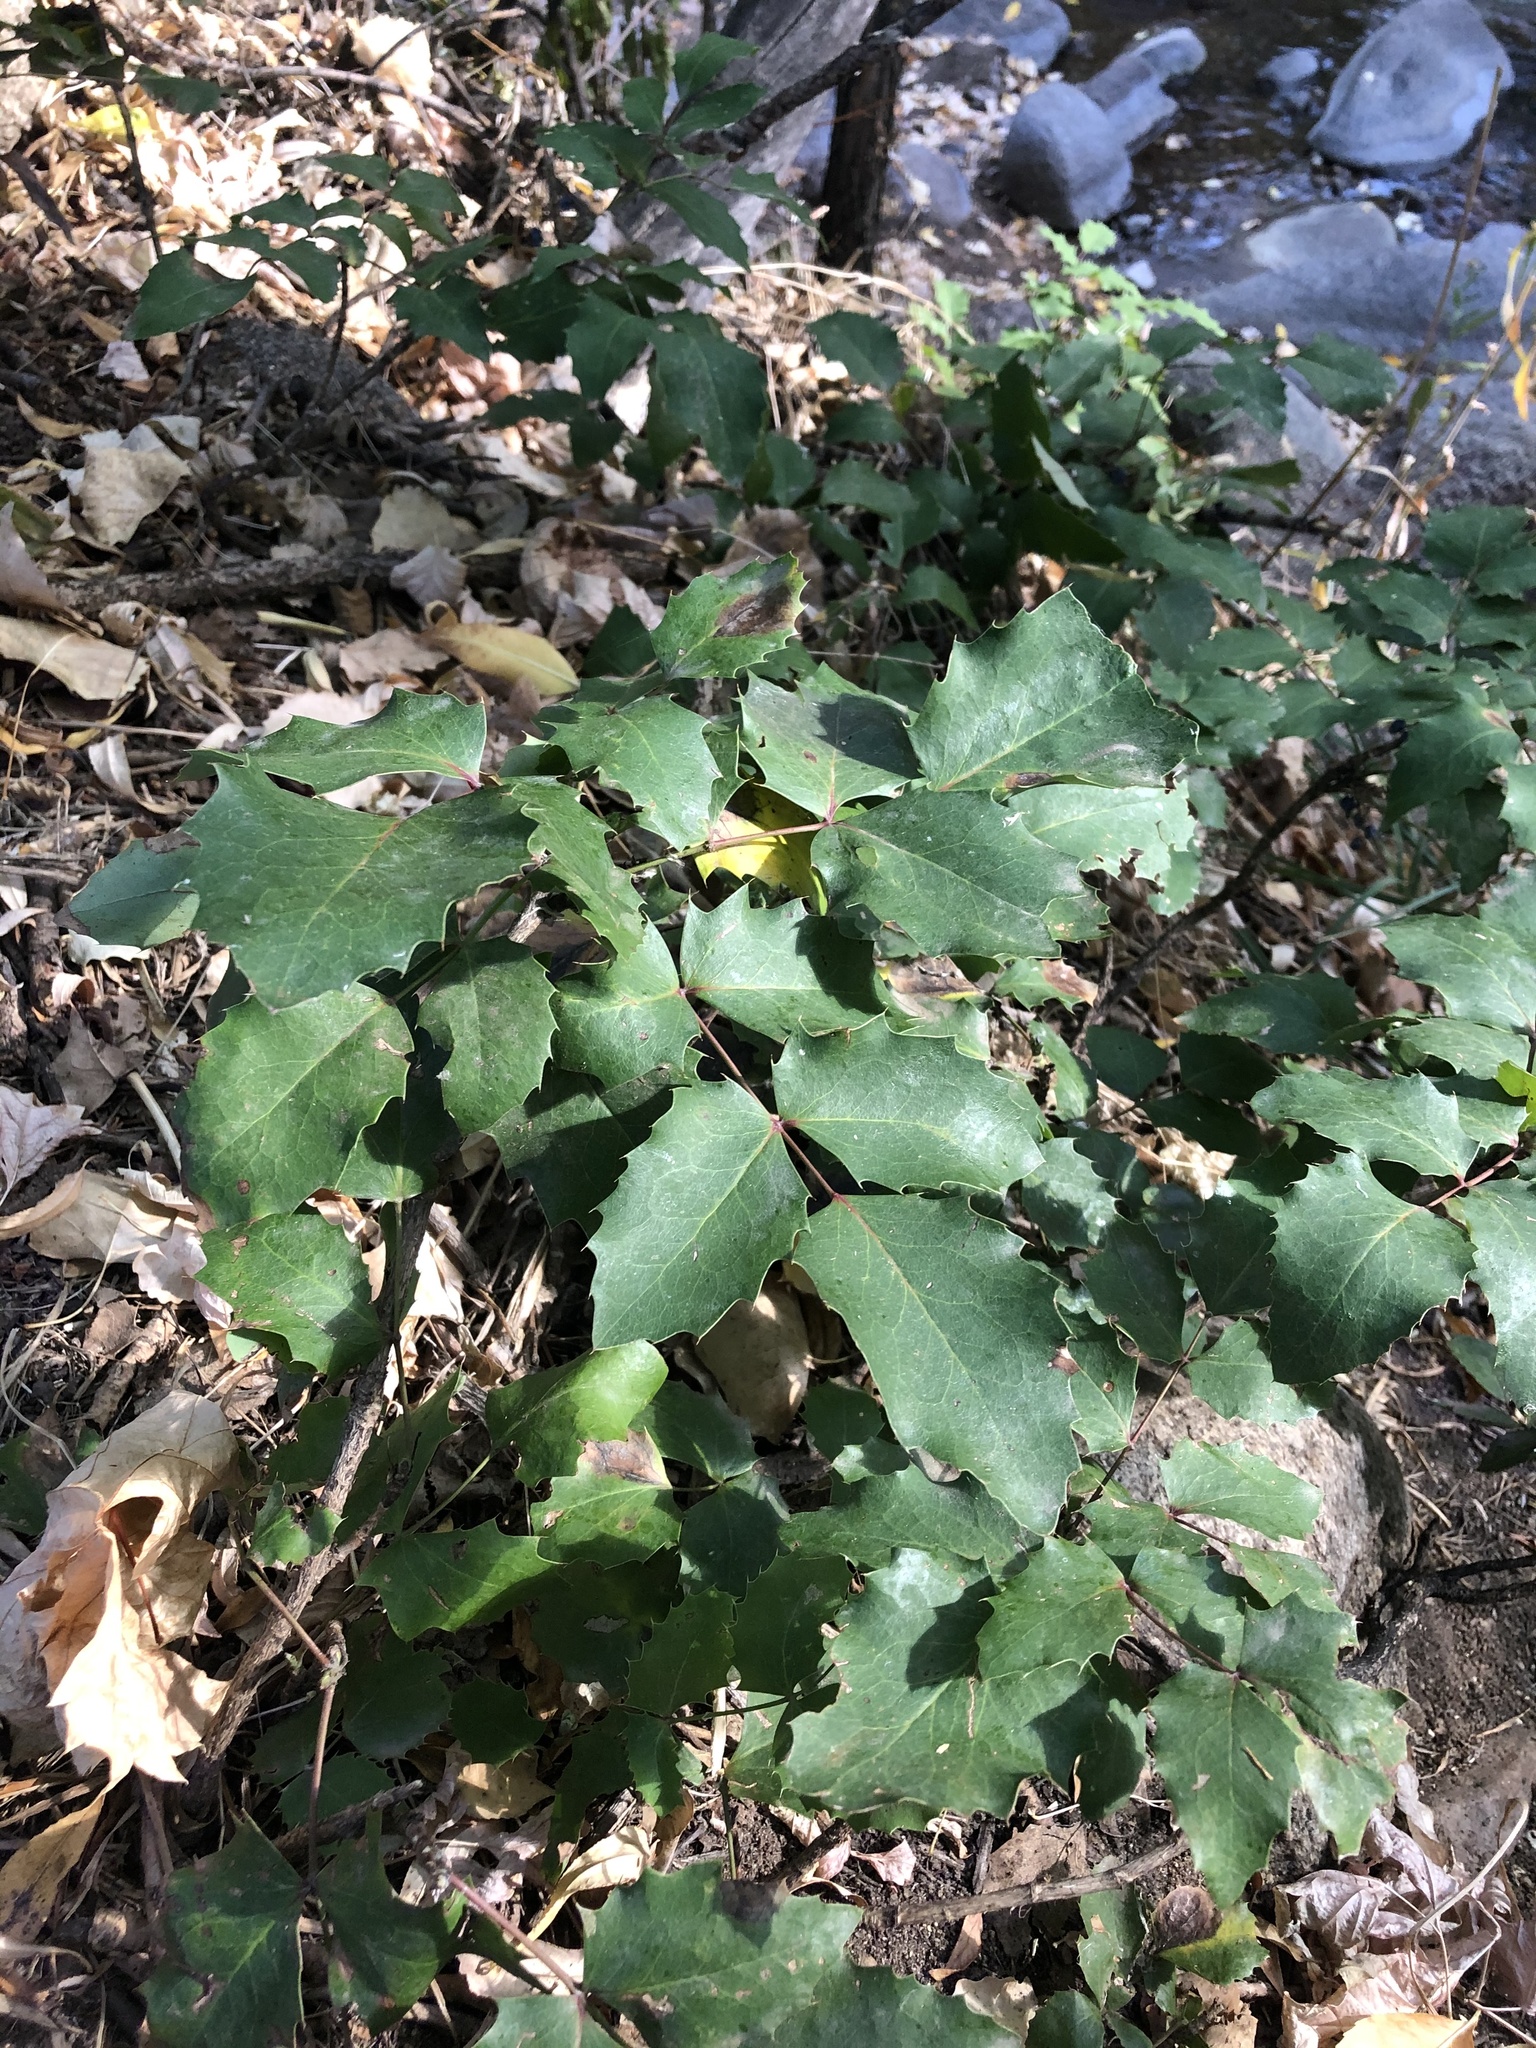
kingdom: Plantae
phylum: Tracheophyta
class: Magnoliopsida
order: Ranunculales
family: Berberidaceae
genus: Mahonia
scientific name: Mahonia repens
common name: Creeping oregon-grape
